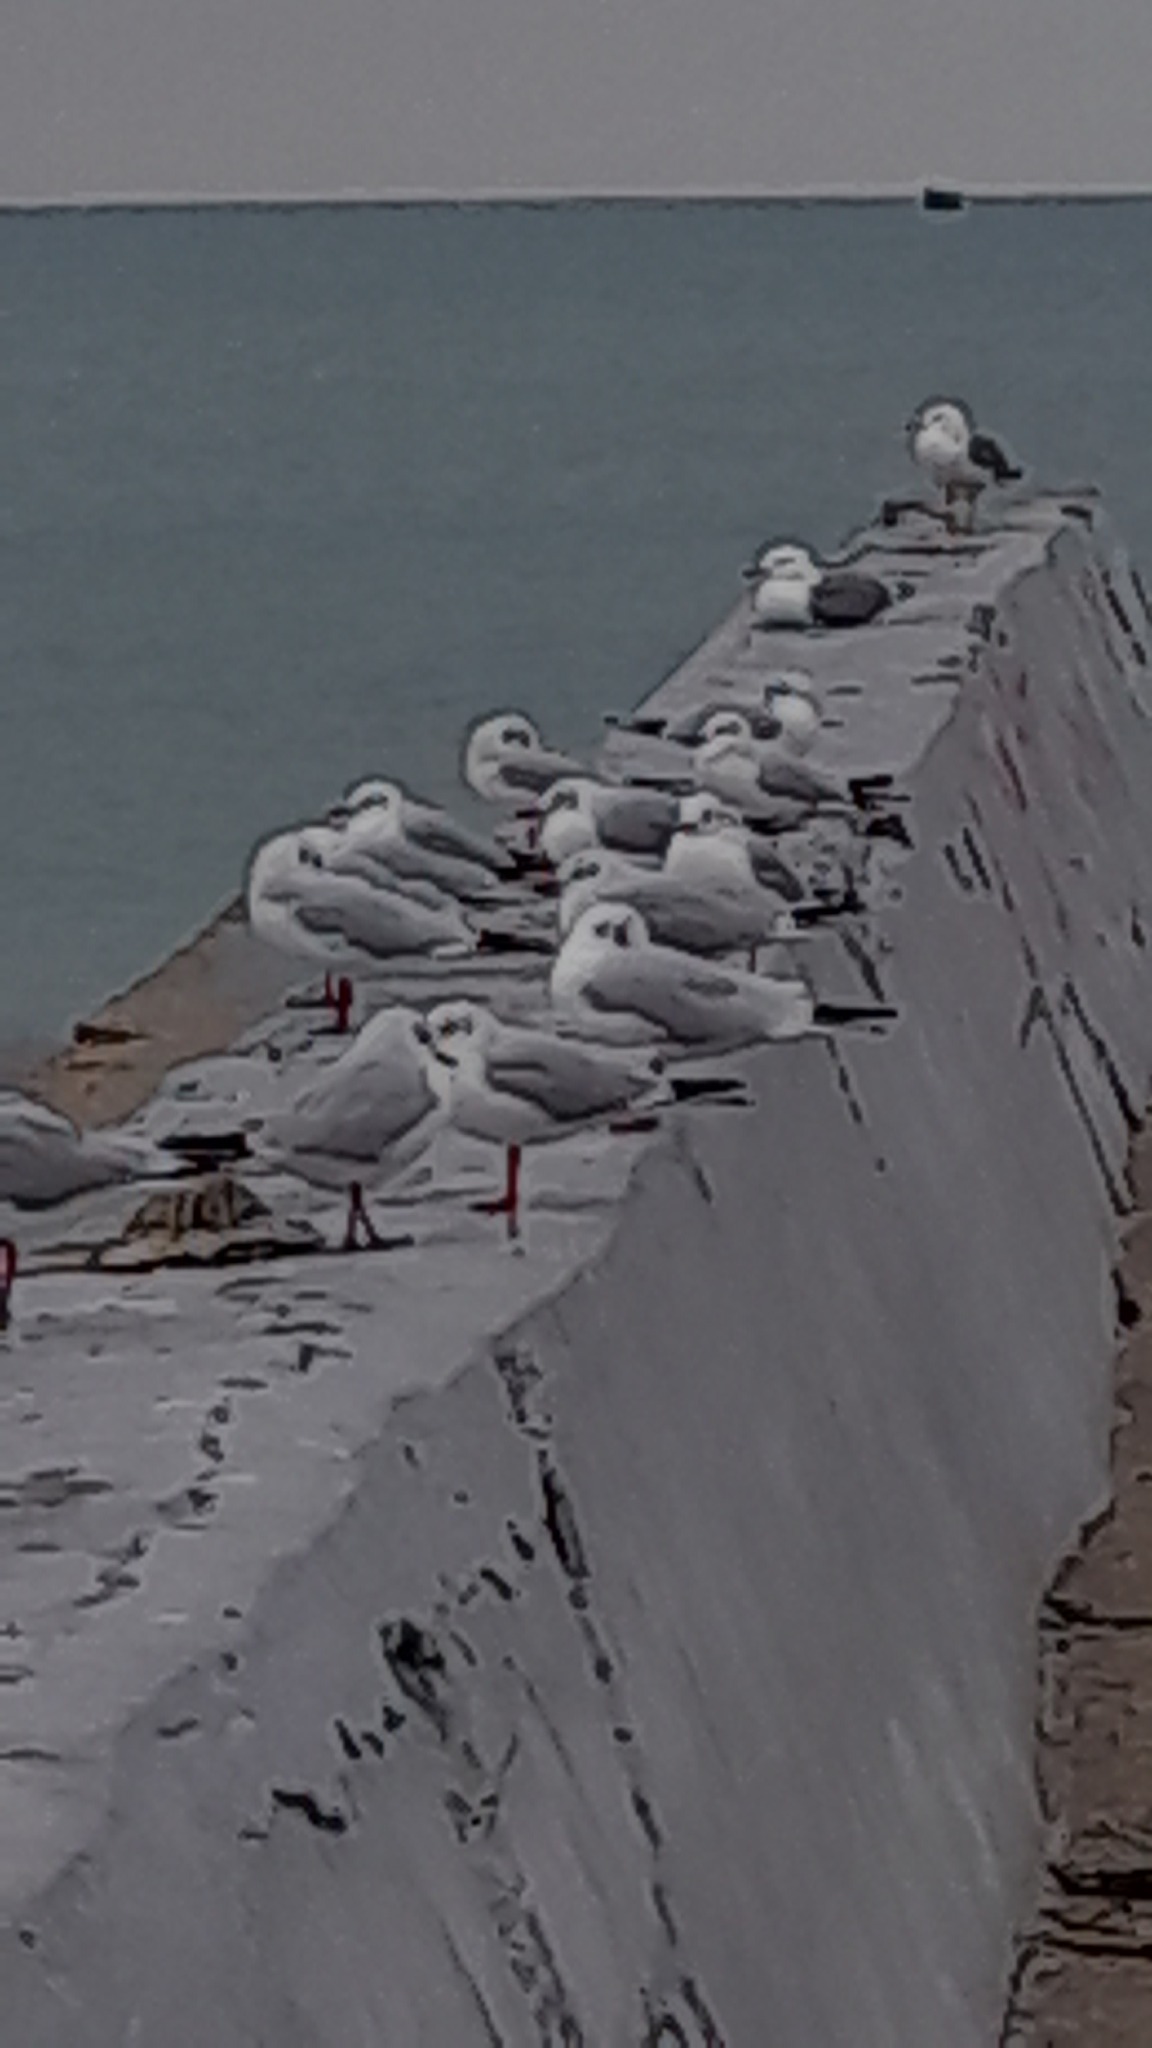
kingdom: Animalia
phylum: Chordata
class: Aves
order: Charadriiformes
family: Laridae
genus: Chroicocephalus
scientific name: Chroicocephalus ridibundus
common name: Black-headed gull
